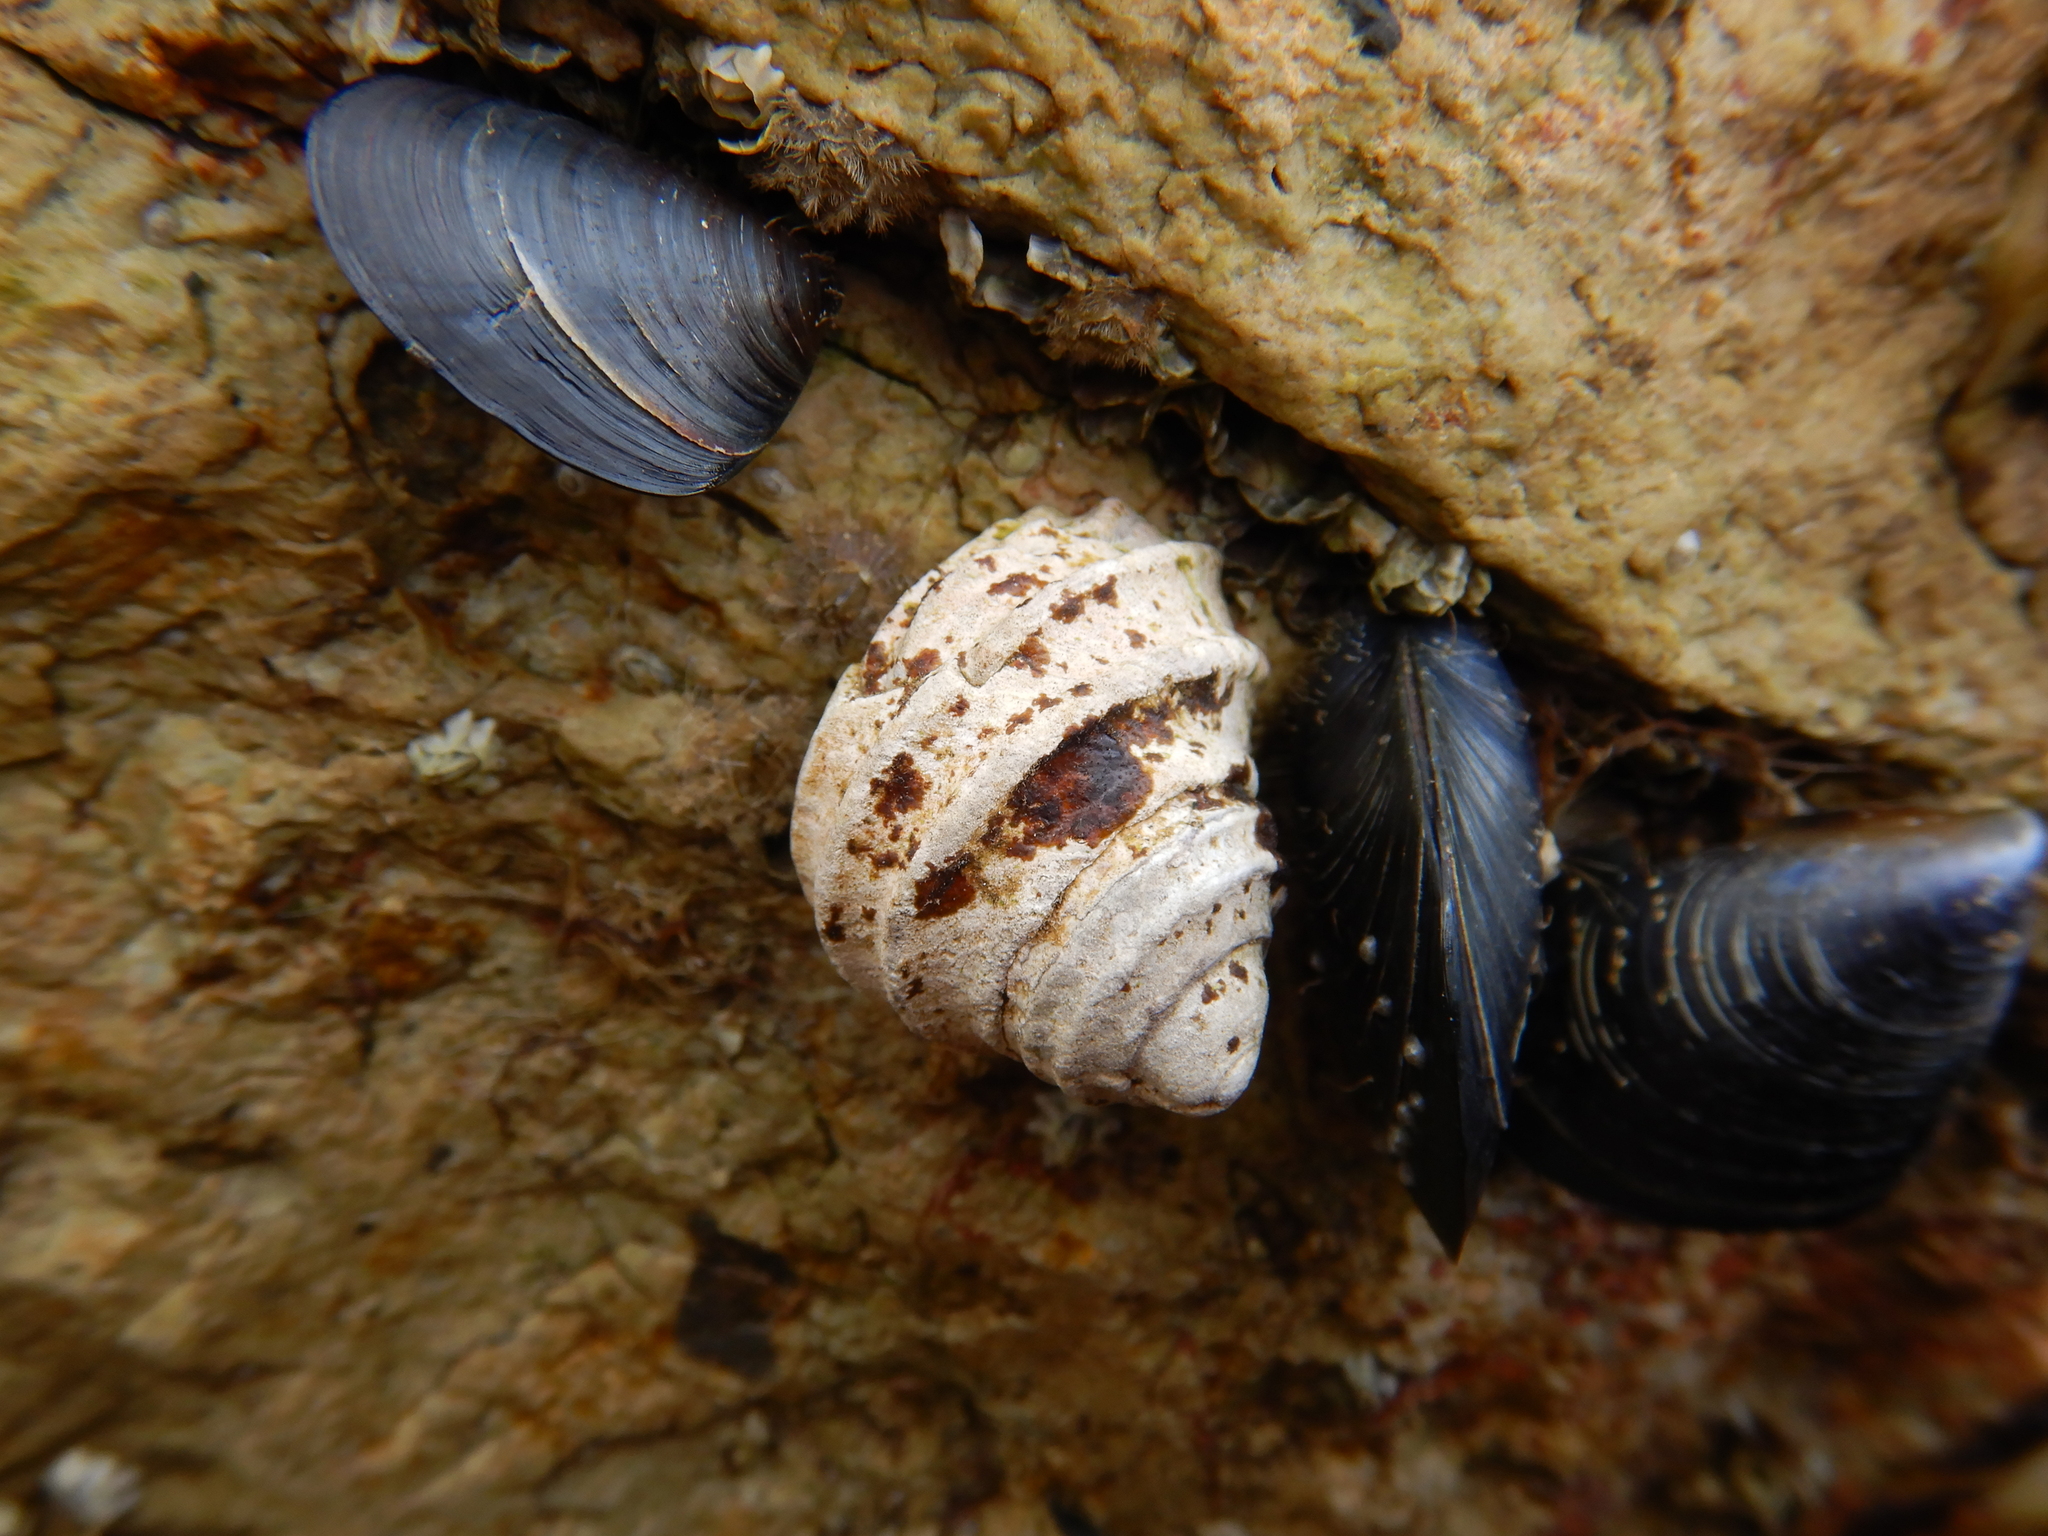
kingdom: Animalia
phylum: Mollusca
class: Gastropoda
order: Trochida
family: Trochidae
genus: Austrocochlea
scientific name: Austrocochlea constricta
